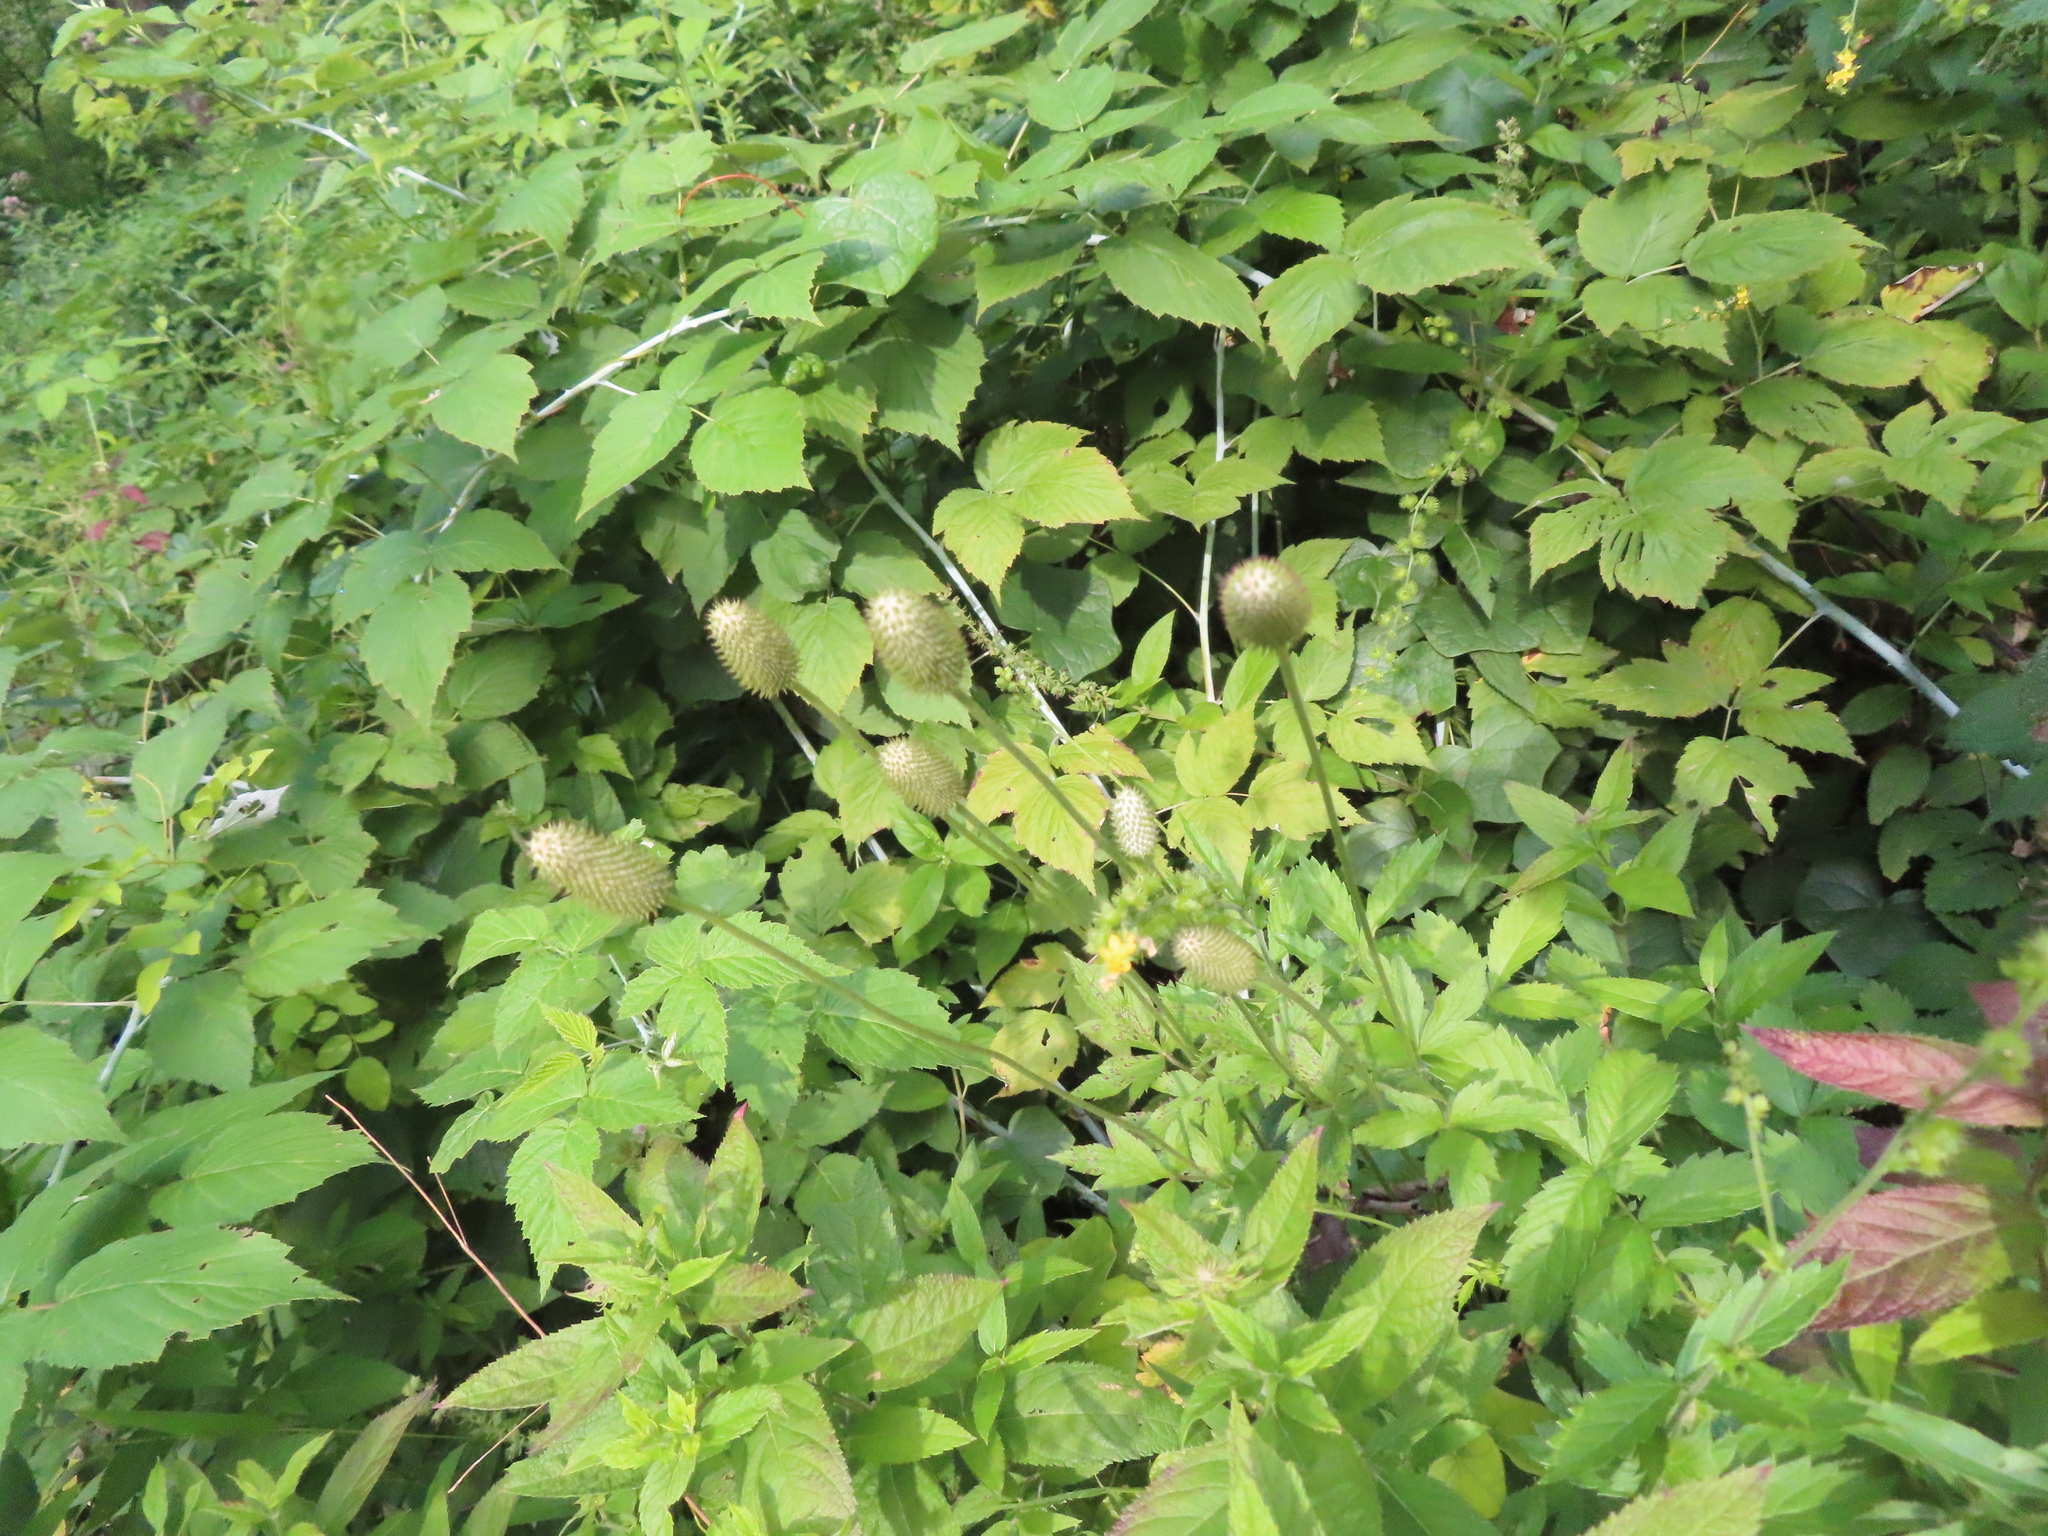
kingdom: Plantae
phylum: Tracheophyta
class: Magnoliopsida
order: Ranunculales
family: Ranunculaceae
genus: Anemone
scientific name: Anemone virginiana
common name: Tall anemone
